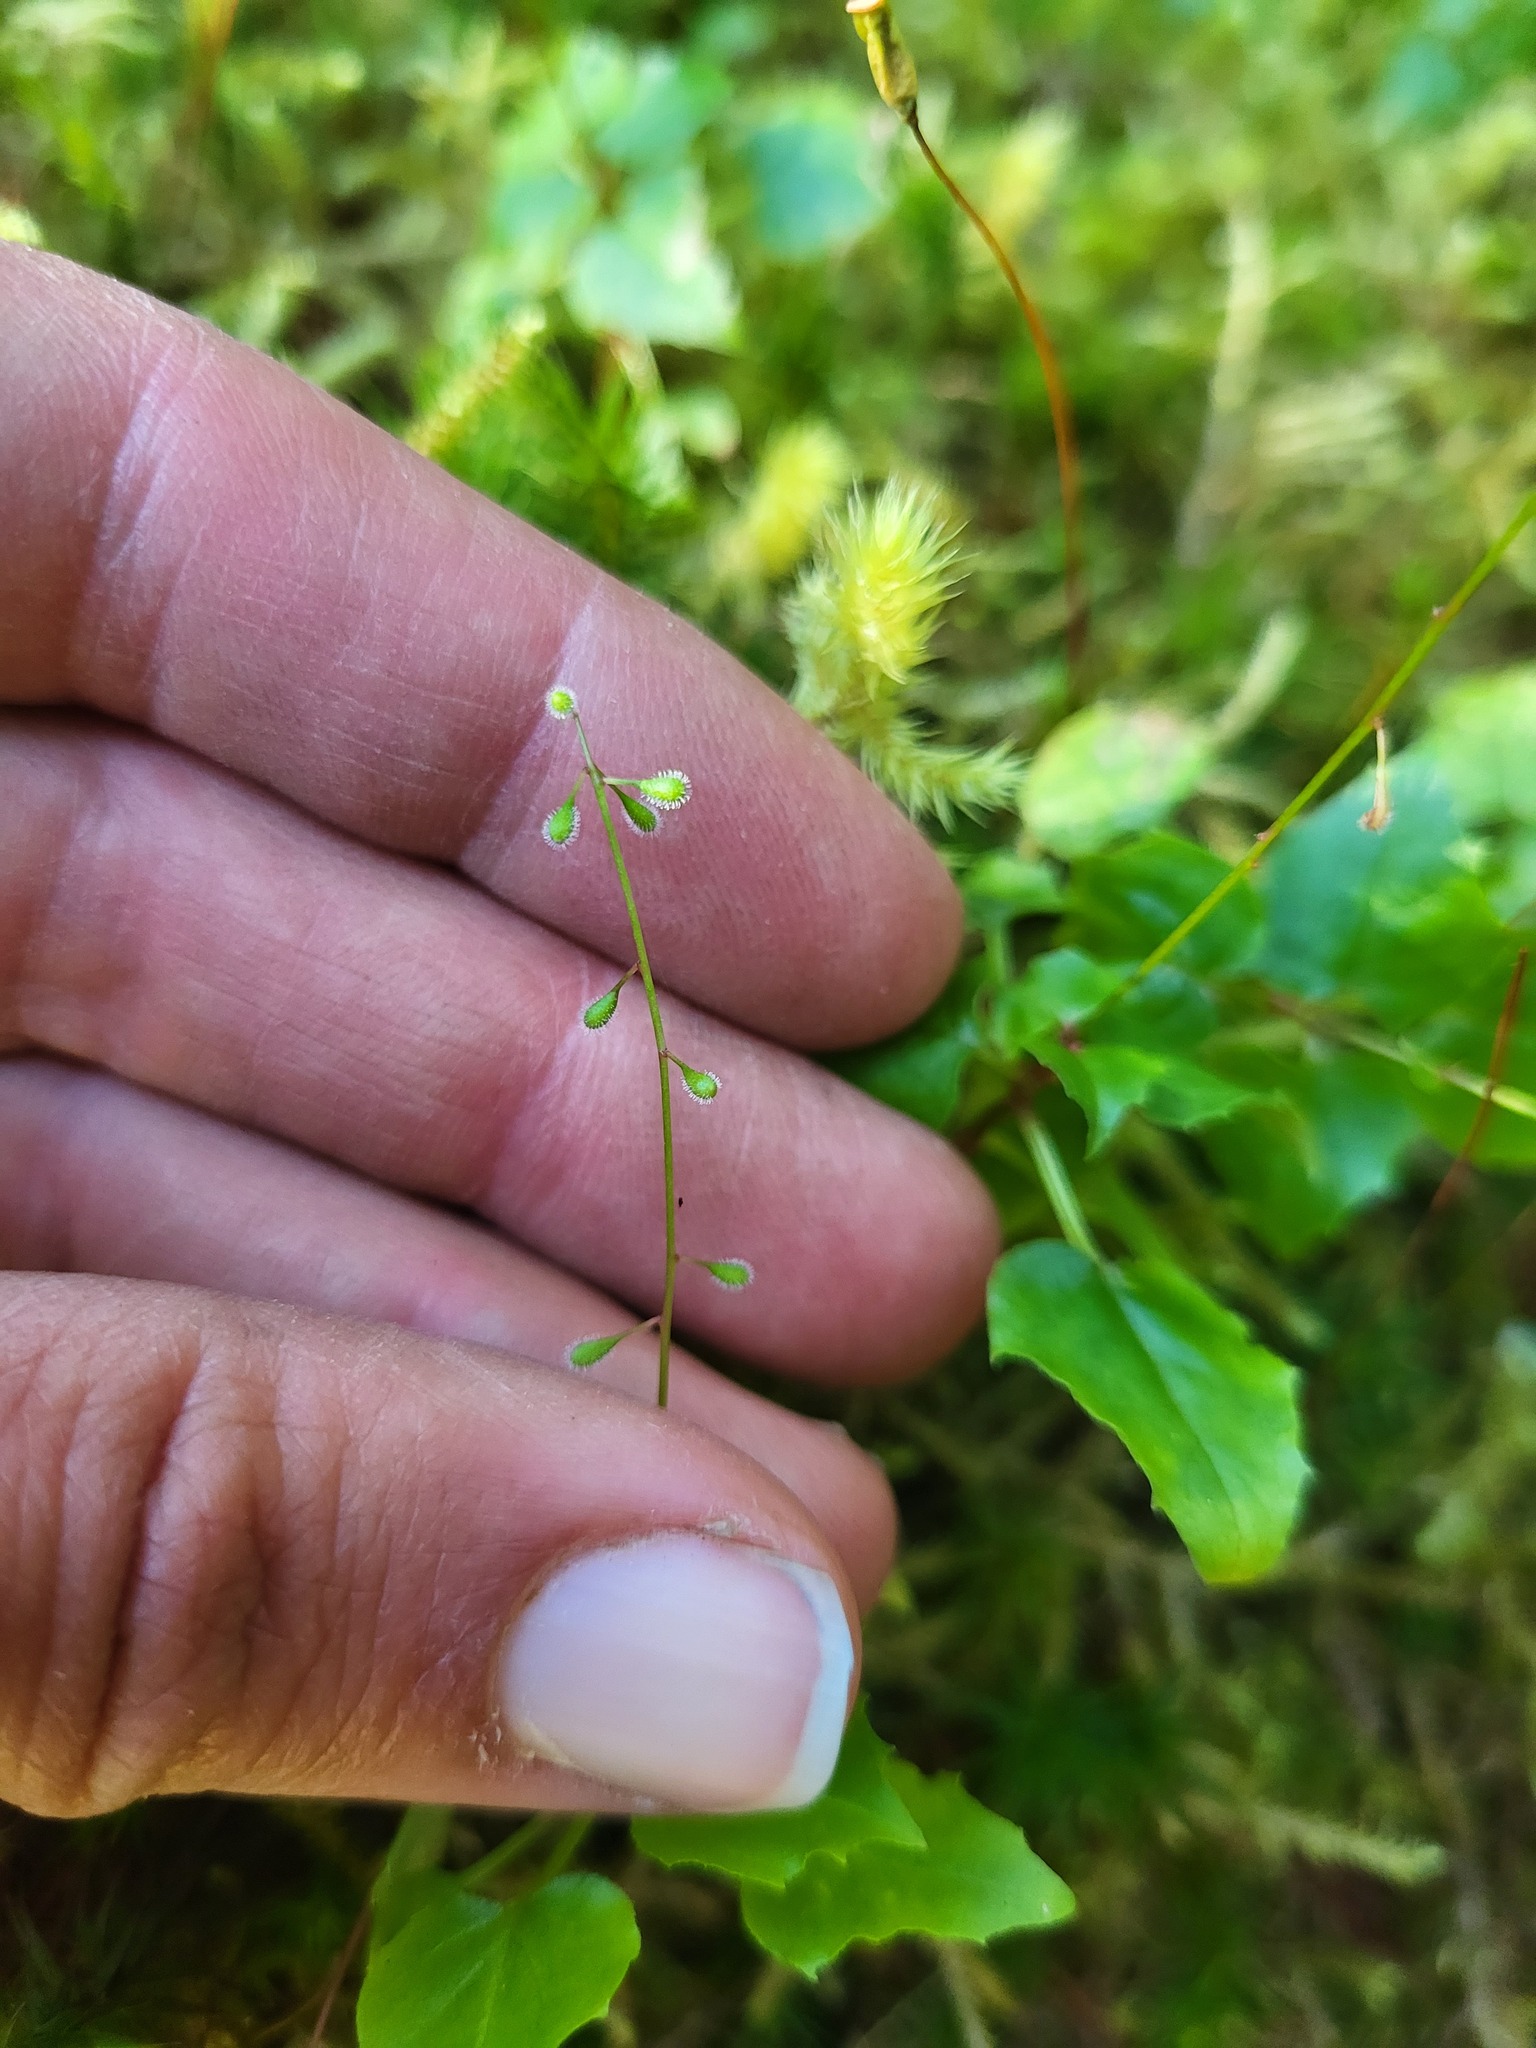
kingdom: Plantae
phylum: Tracheophyta
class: Magnoliopsida
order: Myrtales
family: Onagraceae
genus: Circaea
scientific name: Circaea alpina
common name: Alpine enchanter's-nightshade
